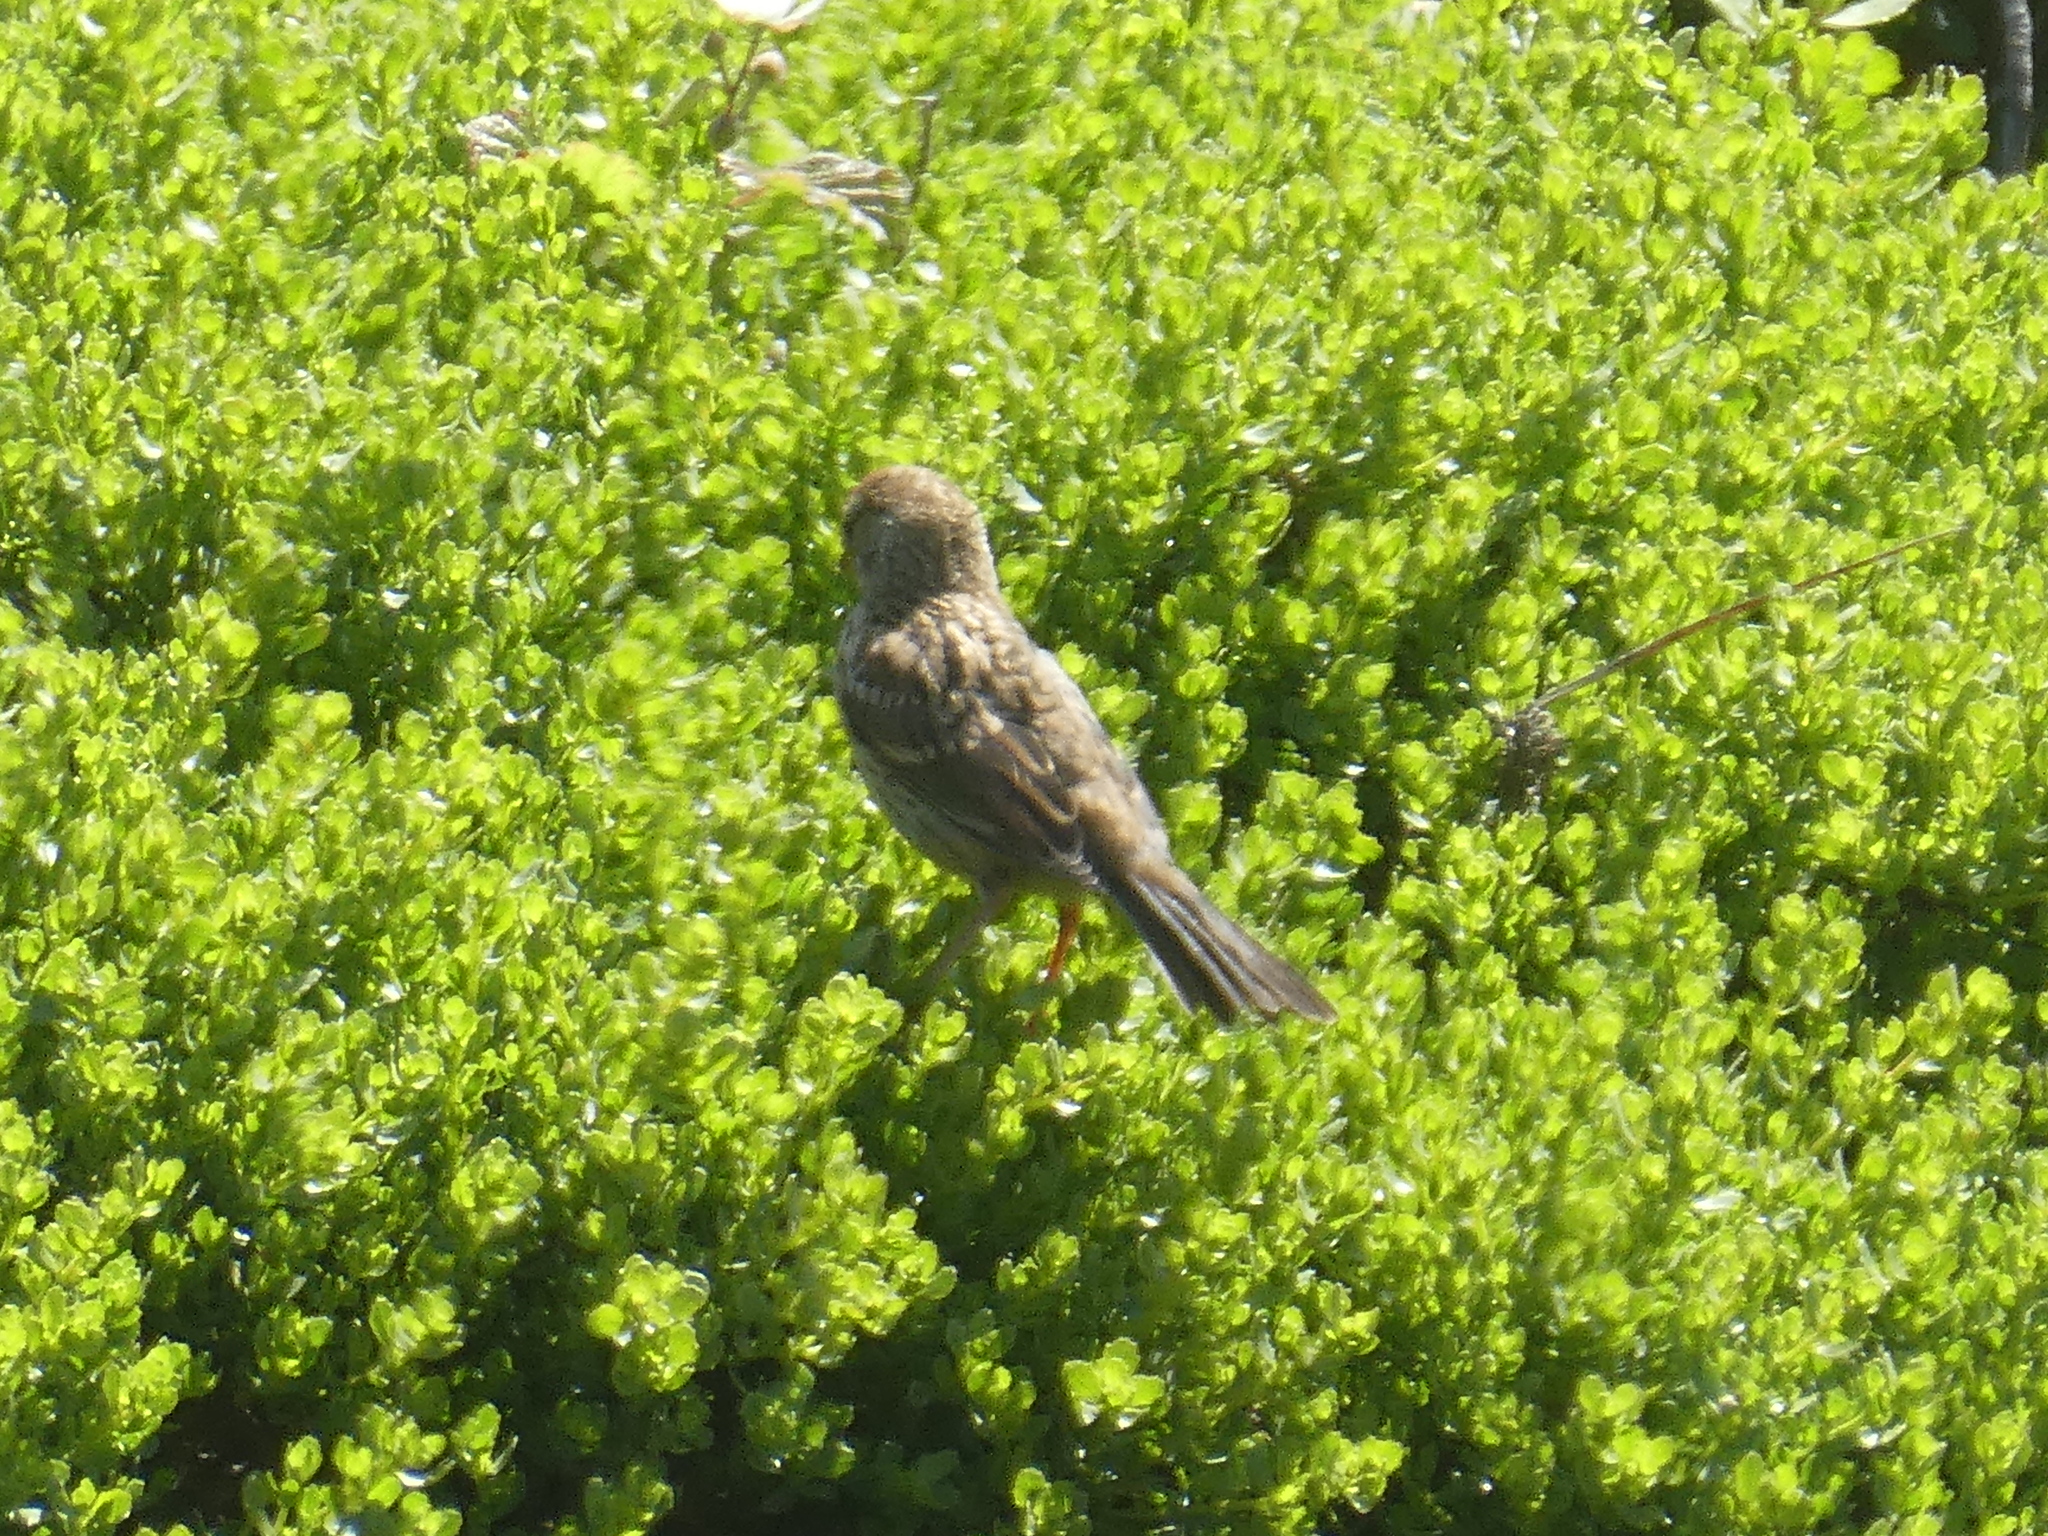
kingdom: Animalia
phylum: Chordata
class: Aves
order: Passeriformes
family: Passerellidae
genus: Zonotrichia
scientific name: Zonotrichia leucophrys
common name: White-crowned sparrow
